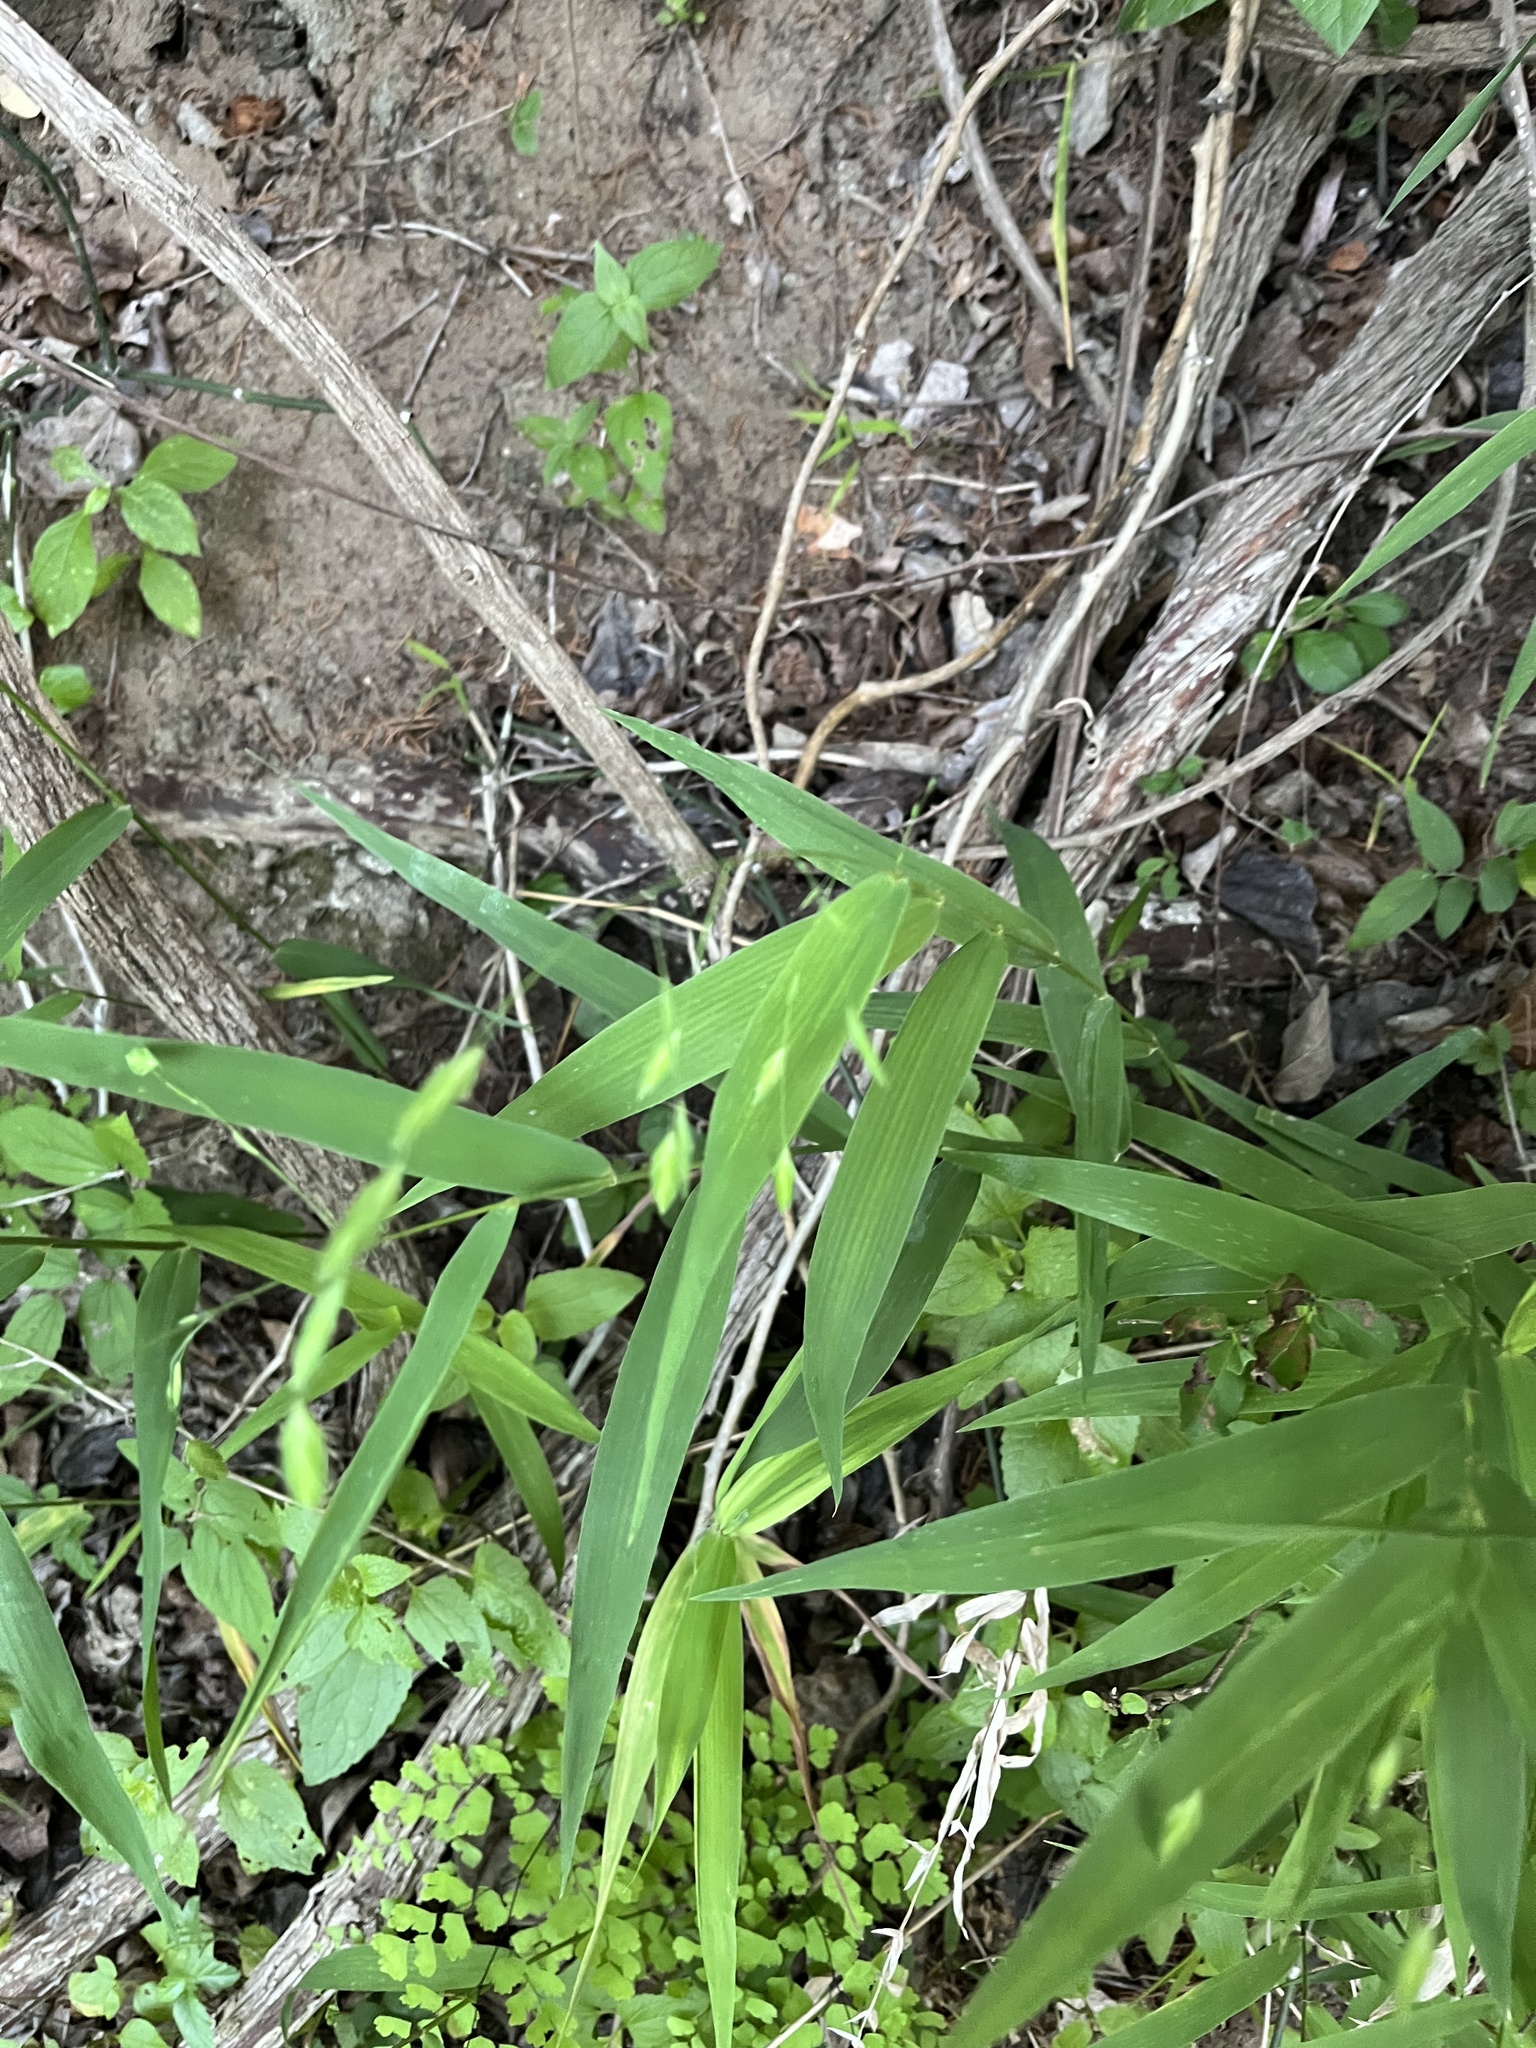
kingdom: Plantae
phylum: Tracheophyta
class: Liliopsida
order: Poales
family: Poaceae
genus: Chasmanthium
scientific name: Chasmanthium latifolium
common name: Broad-leaved chasmanthium
